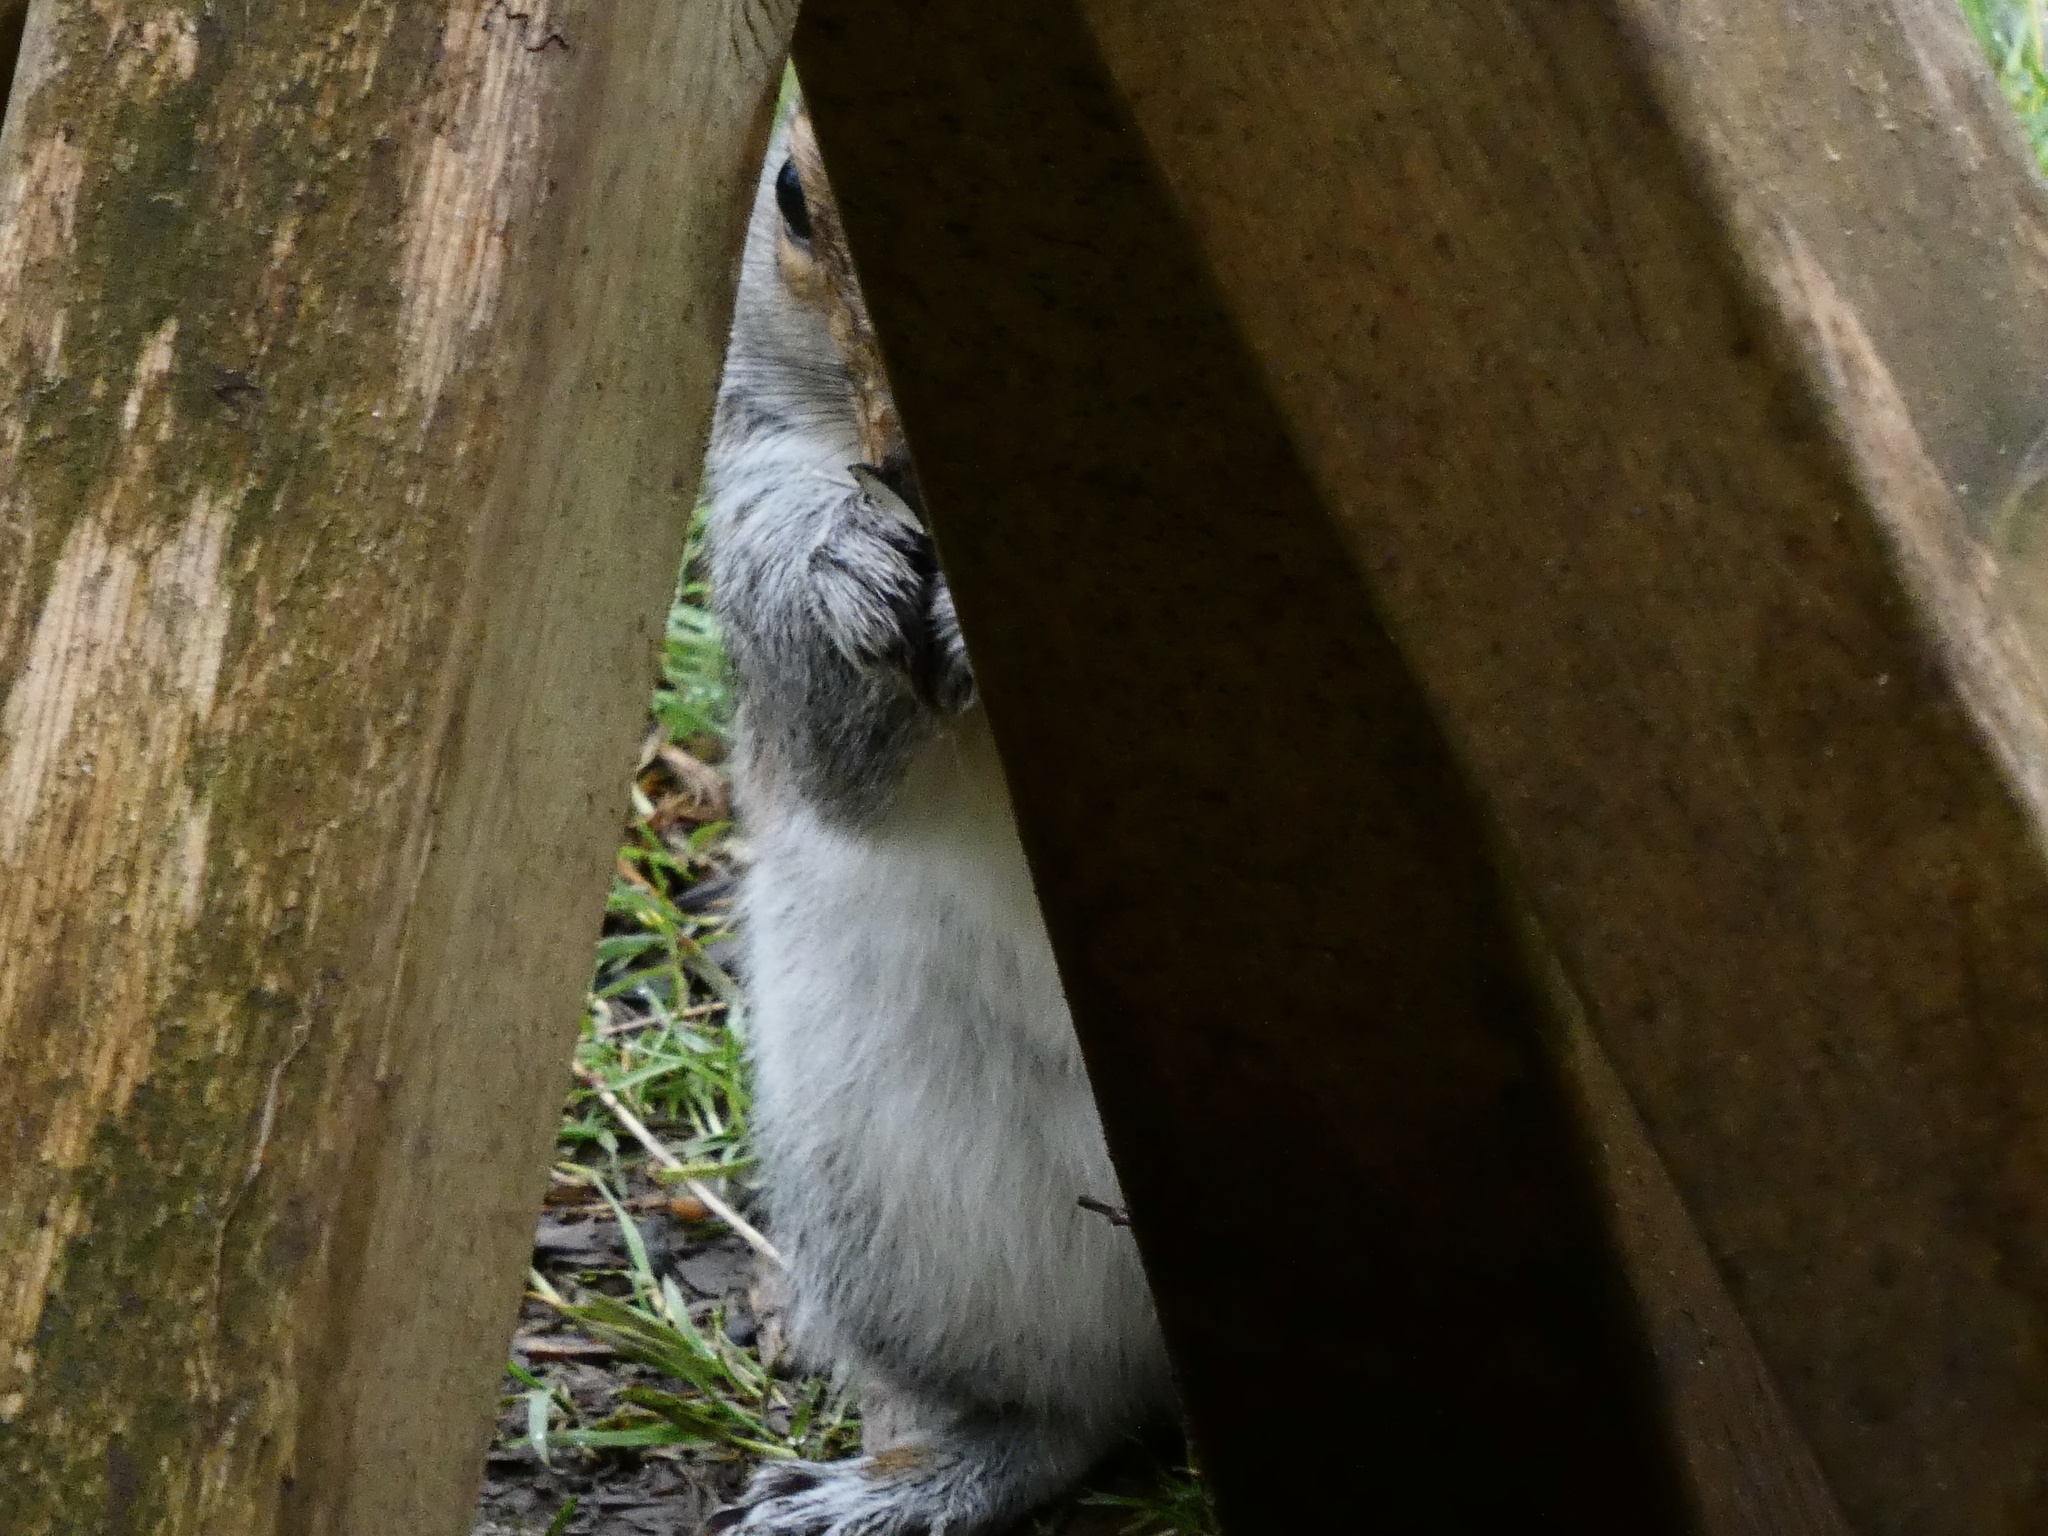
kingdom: Animalia
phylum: Chordata
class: Mammalia
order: Rodentia
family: Sciuridae
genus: Sciurus
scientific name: Sciurus carolinensis
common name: Eastern gray squirrel
